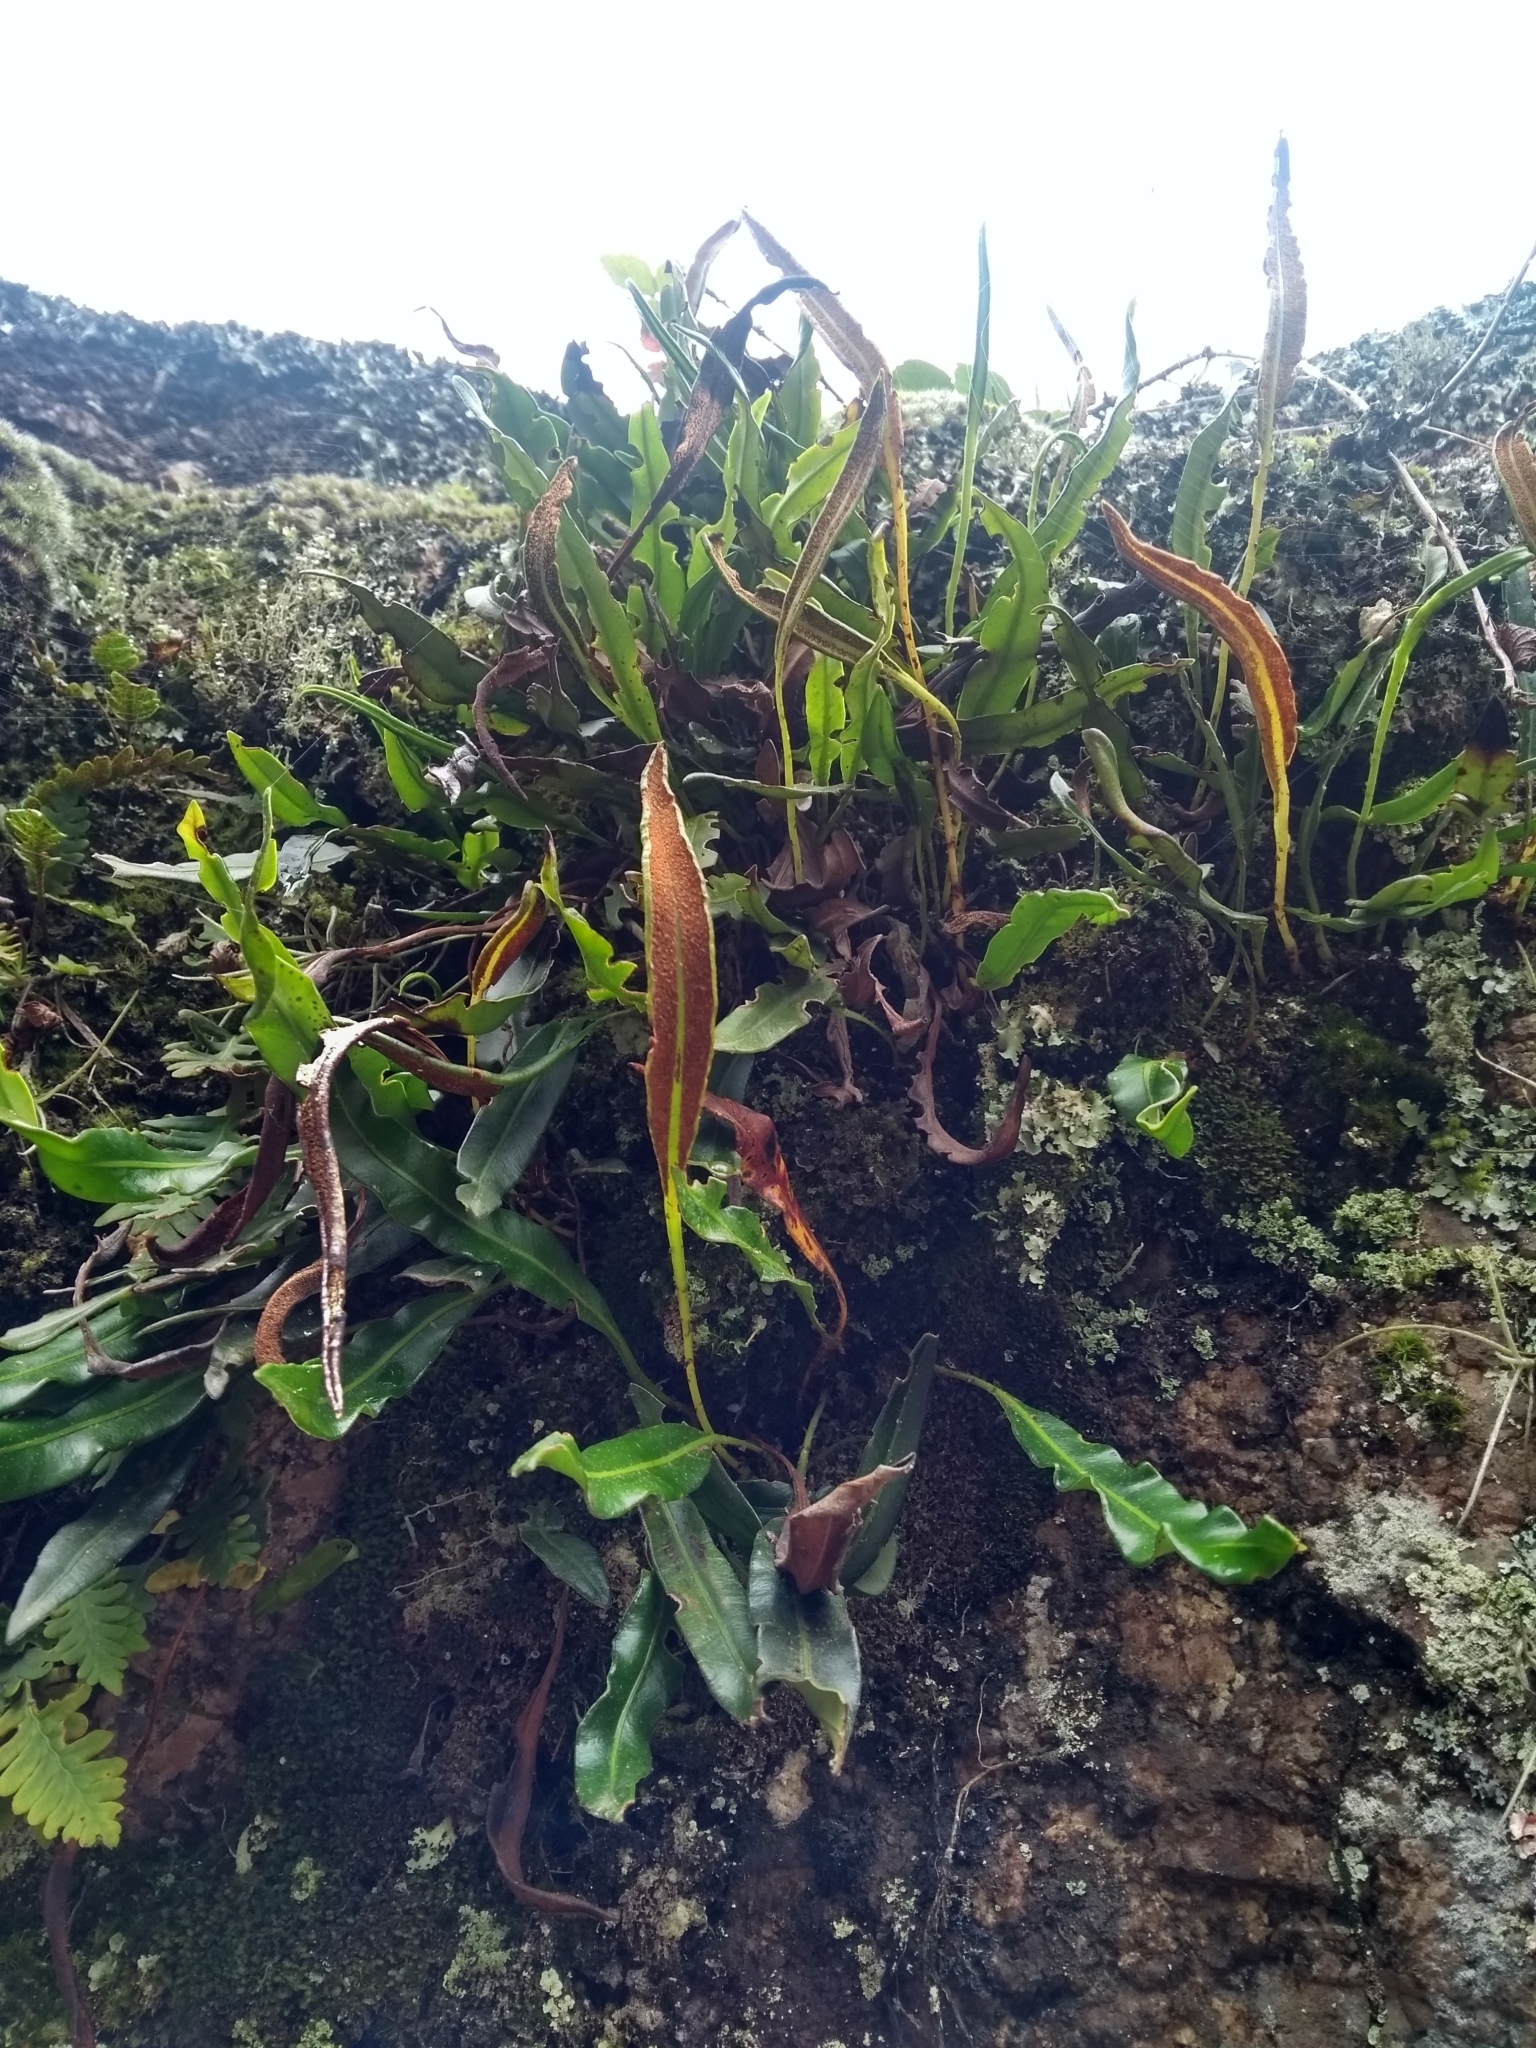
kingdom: Plantae
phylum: Tracheophyta
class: Polypodiopsida
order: Polypodiales
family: Dryopteridaceae
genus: Elaphoglossum
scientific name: Elaphoglossum gayanum
